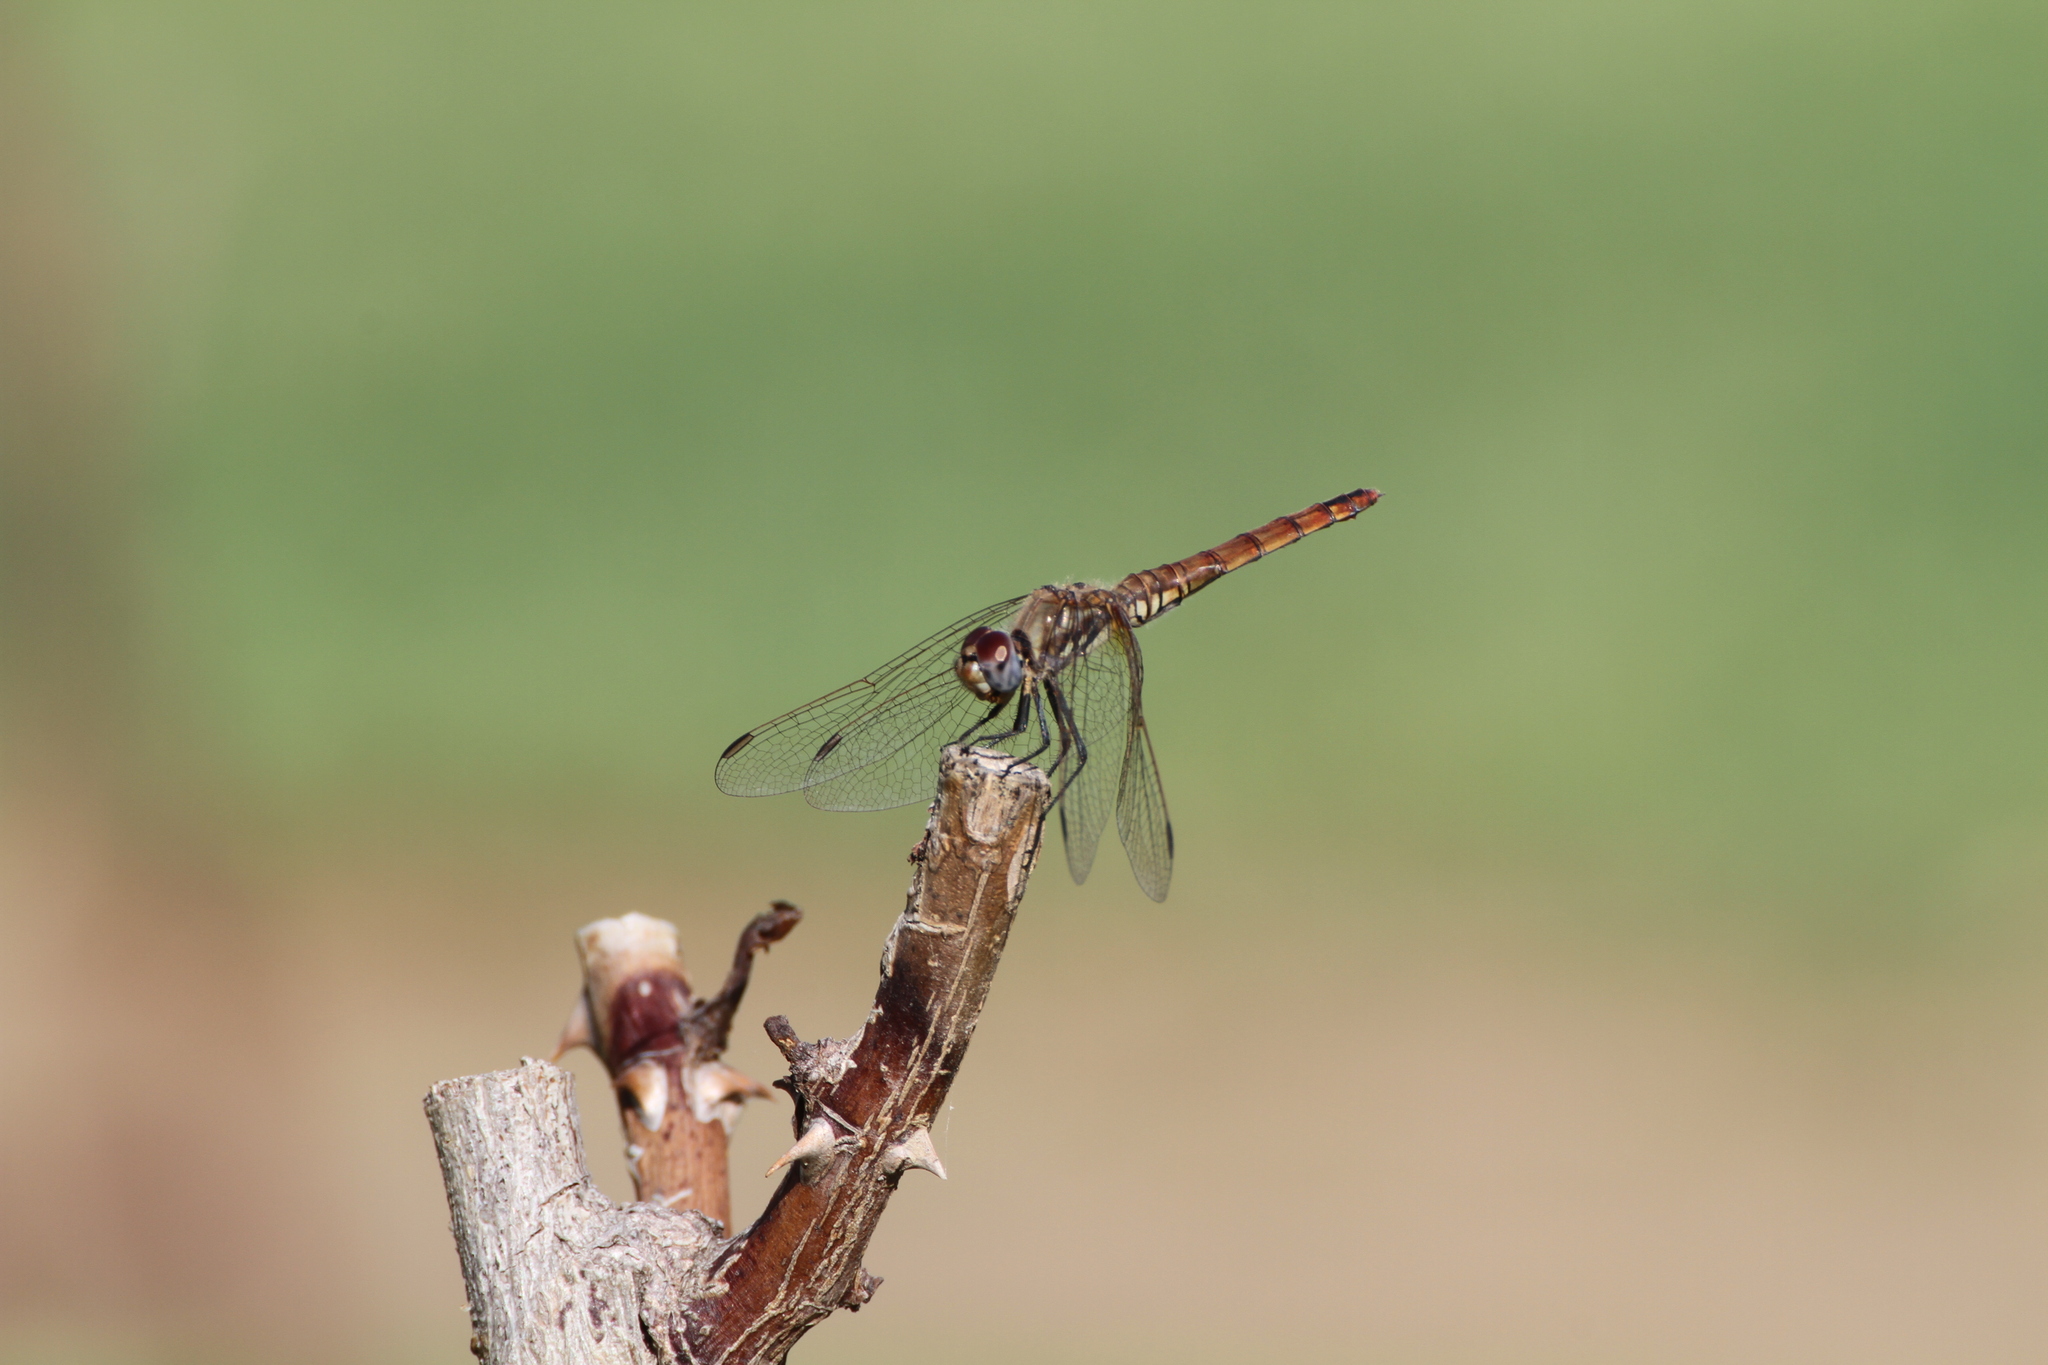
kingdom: Animalia
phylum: Arthropoda
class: Insecta
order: Odonata
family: Libellulidae
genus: Trithemis
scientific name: Trithemis annulata
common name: Violet dropwing
